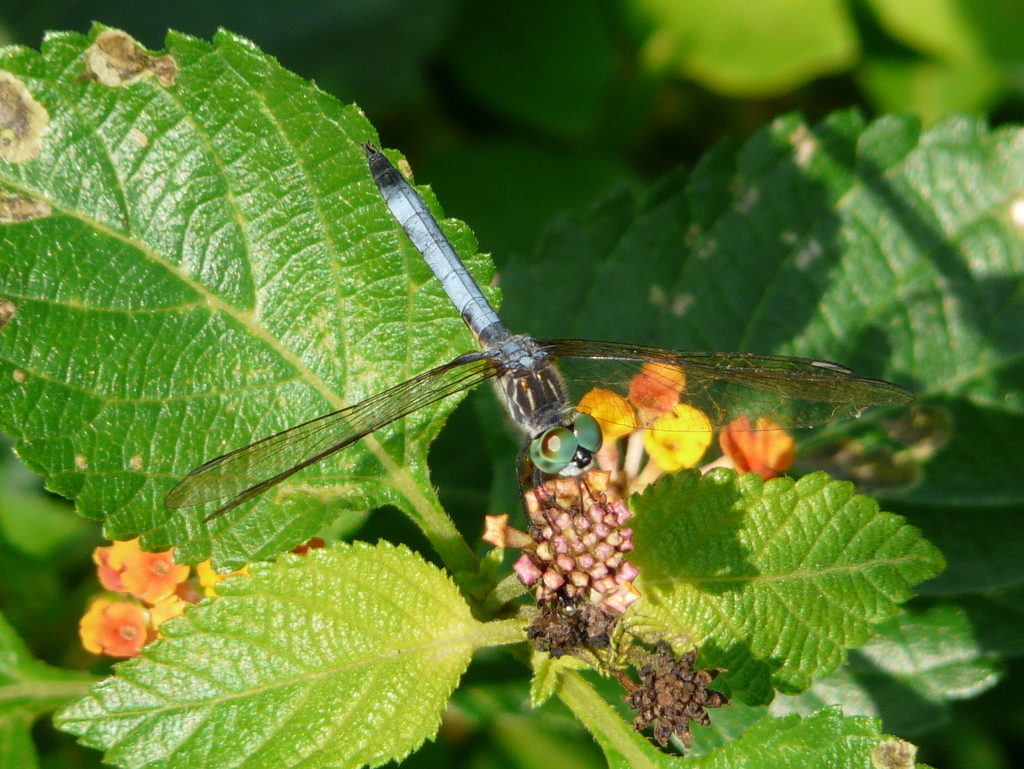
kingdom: Animalia
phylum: Arthropoda
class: Insecta
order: Odonata
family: Libellulidae
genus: Pachydiplax
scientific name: Pachydiplax longipennis
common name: Blue dasher
